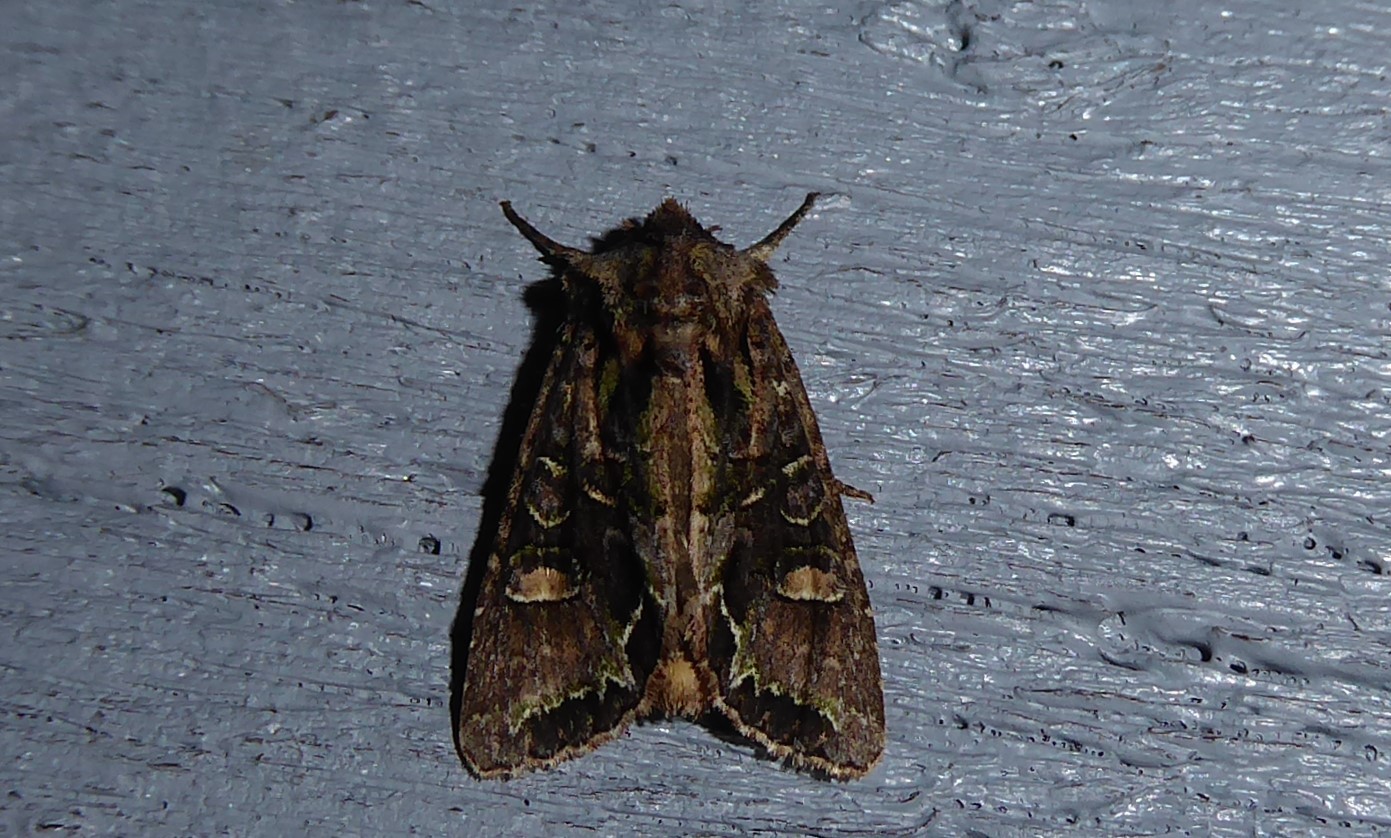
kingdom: Animalia
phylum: Arthropoda
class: Insecta
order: Lepidoptera
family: Noctuidae
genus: Ichneutica
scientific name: Ichneutica insignis
